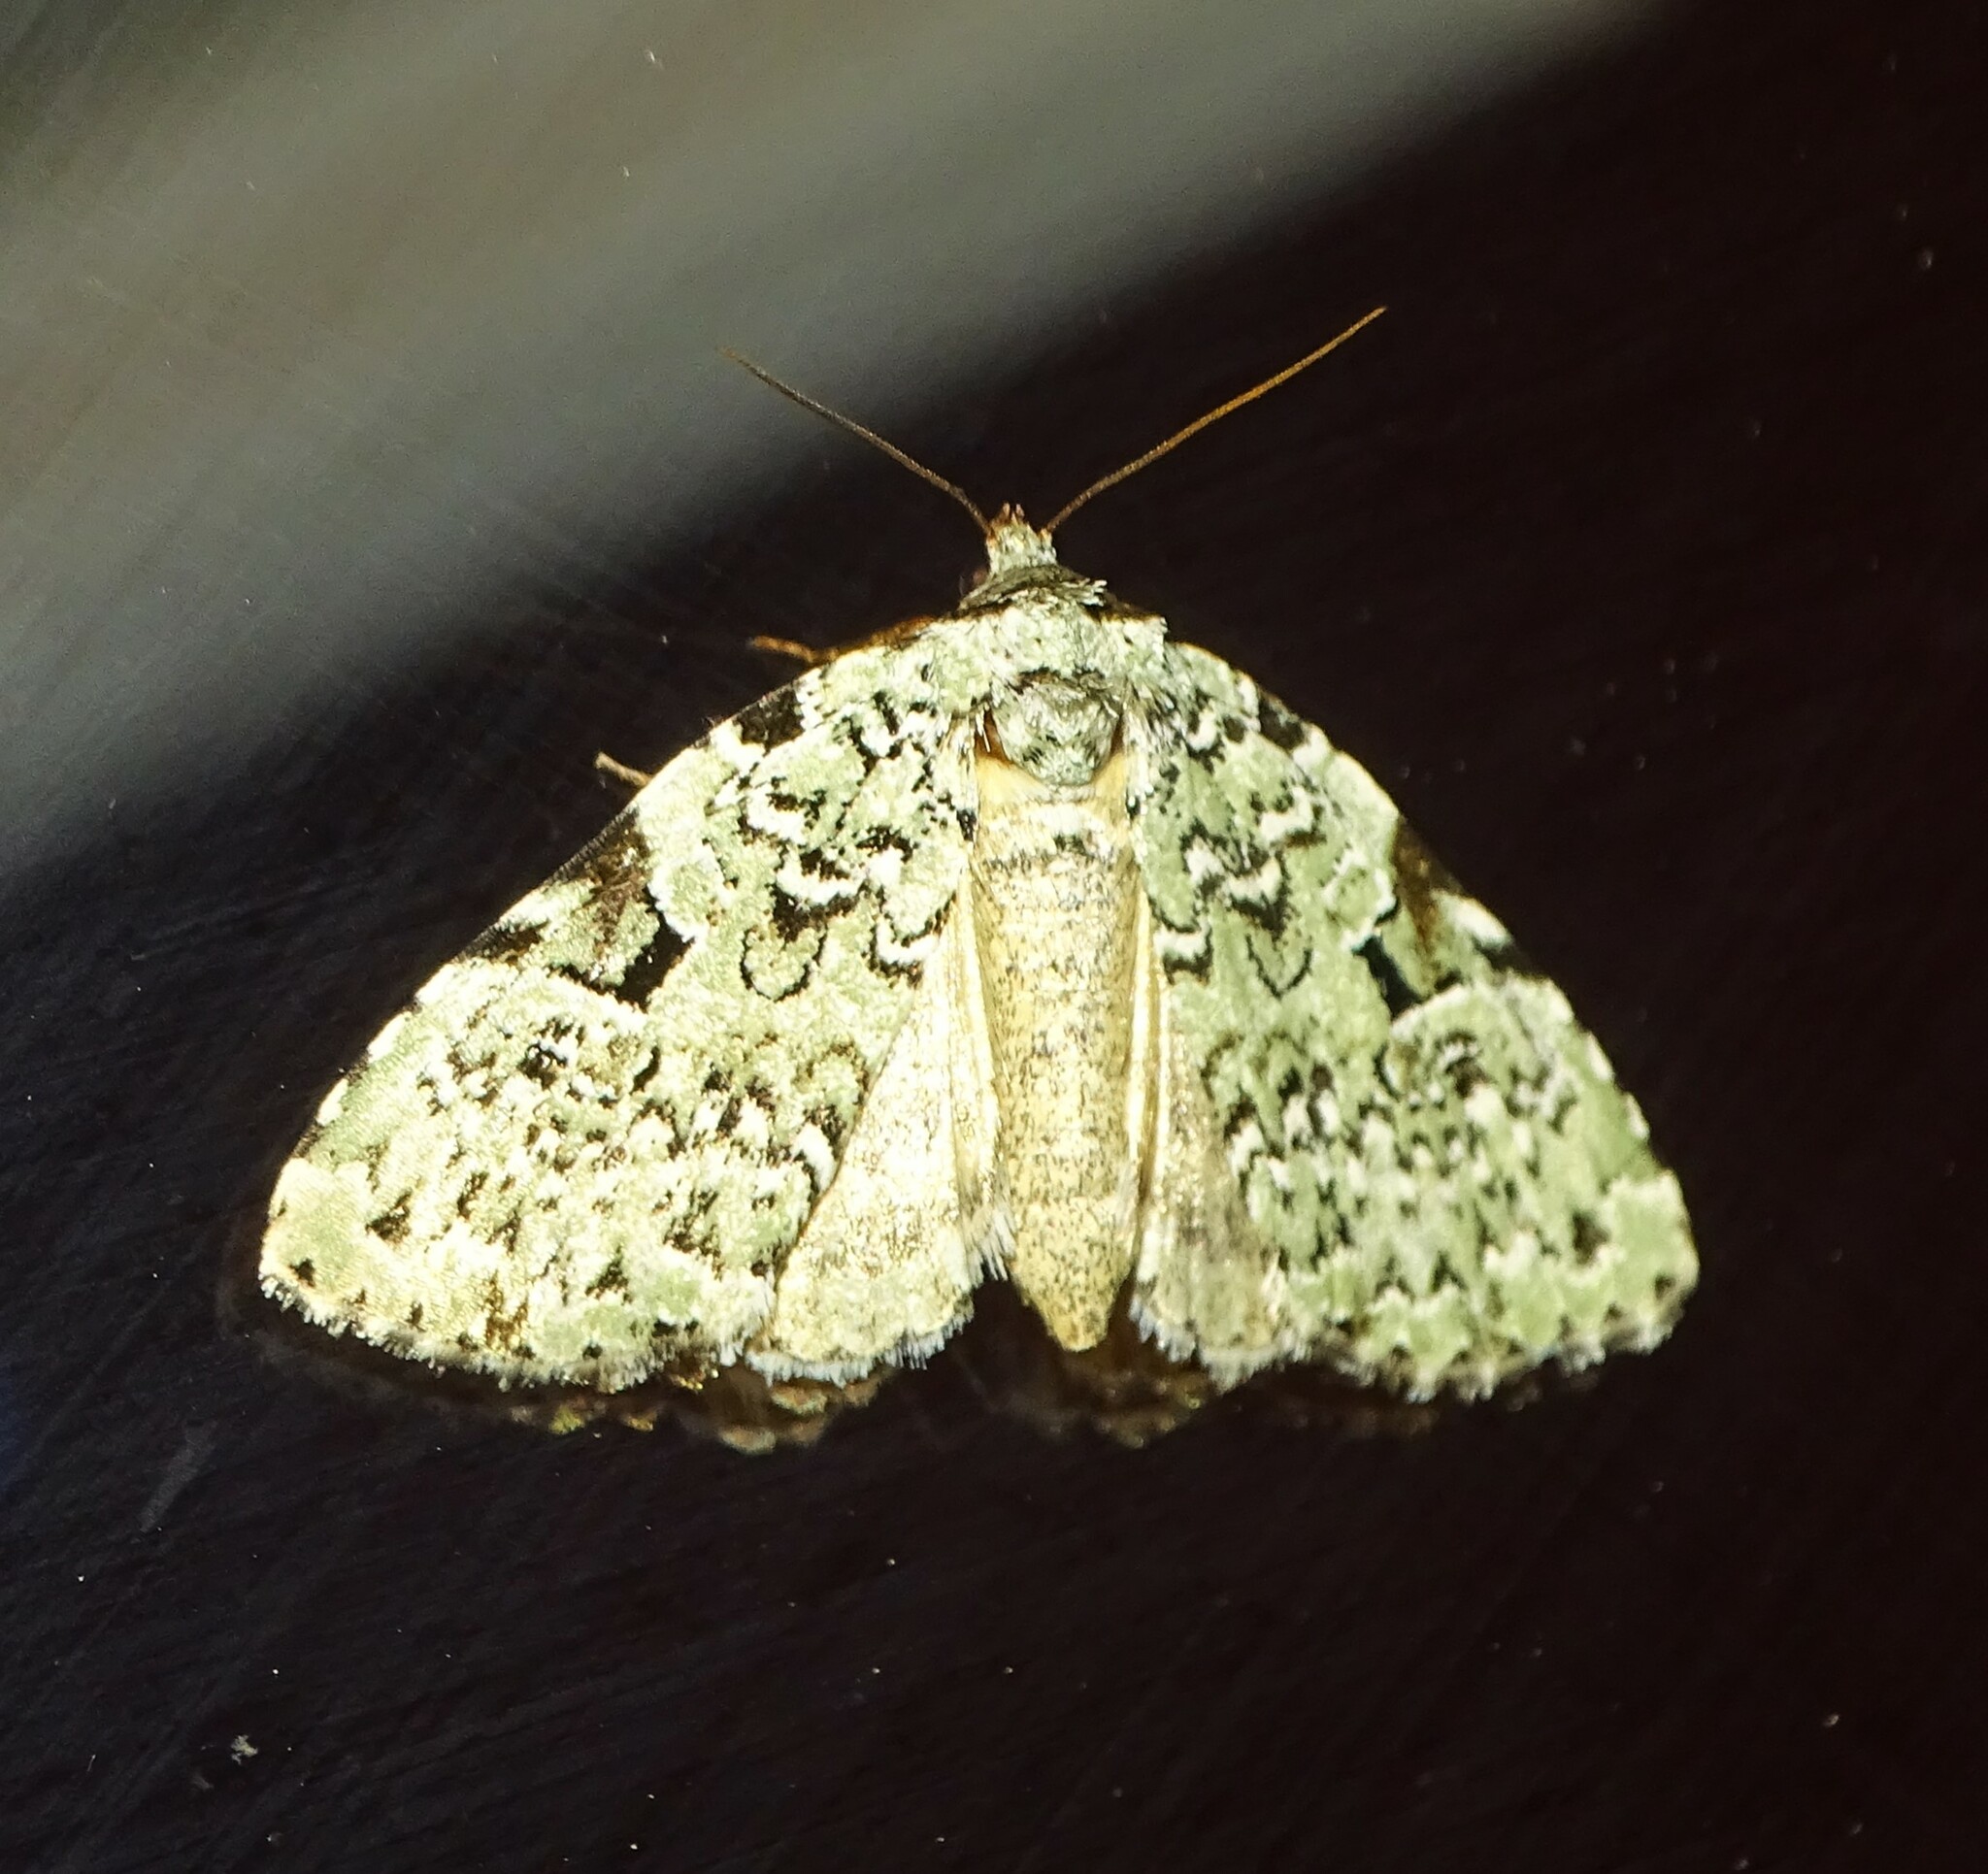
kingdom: Animalia
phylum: Arthropoda
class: Insecta
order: Lepidoptera
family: Noctuidae
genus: Leuconycta
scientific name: Leuconycta diphteroides
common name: Green leuconycta moth
